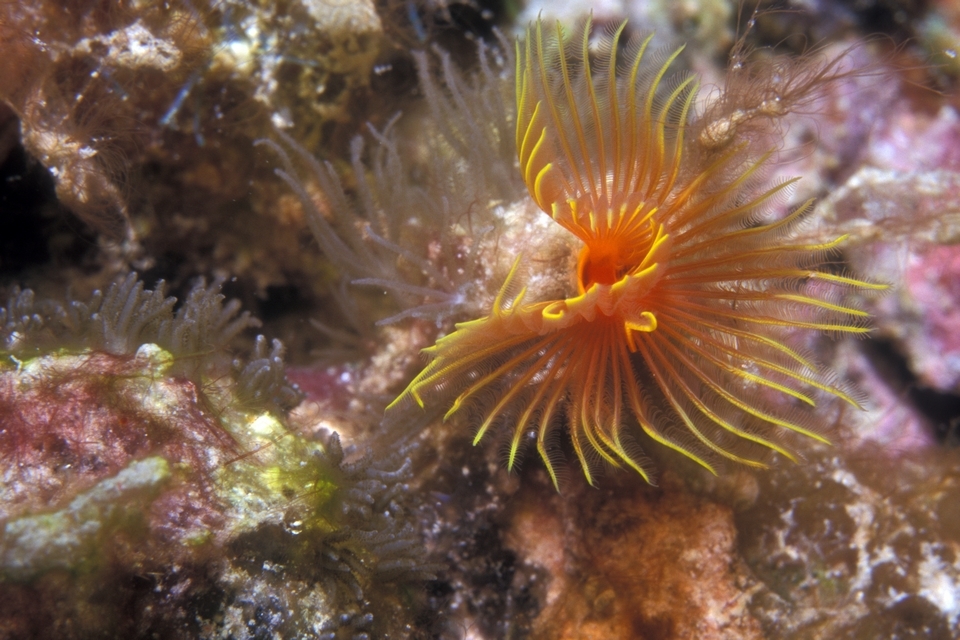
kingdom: Animalia
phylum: Annelida
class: Polychaeta
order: Sabellida
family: Serpulidae
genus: Pomatostegus
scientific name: Pomatostegus stellatus
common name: Star tubeworm
